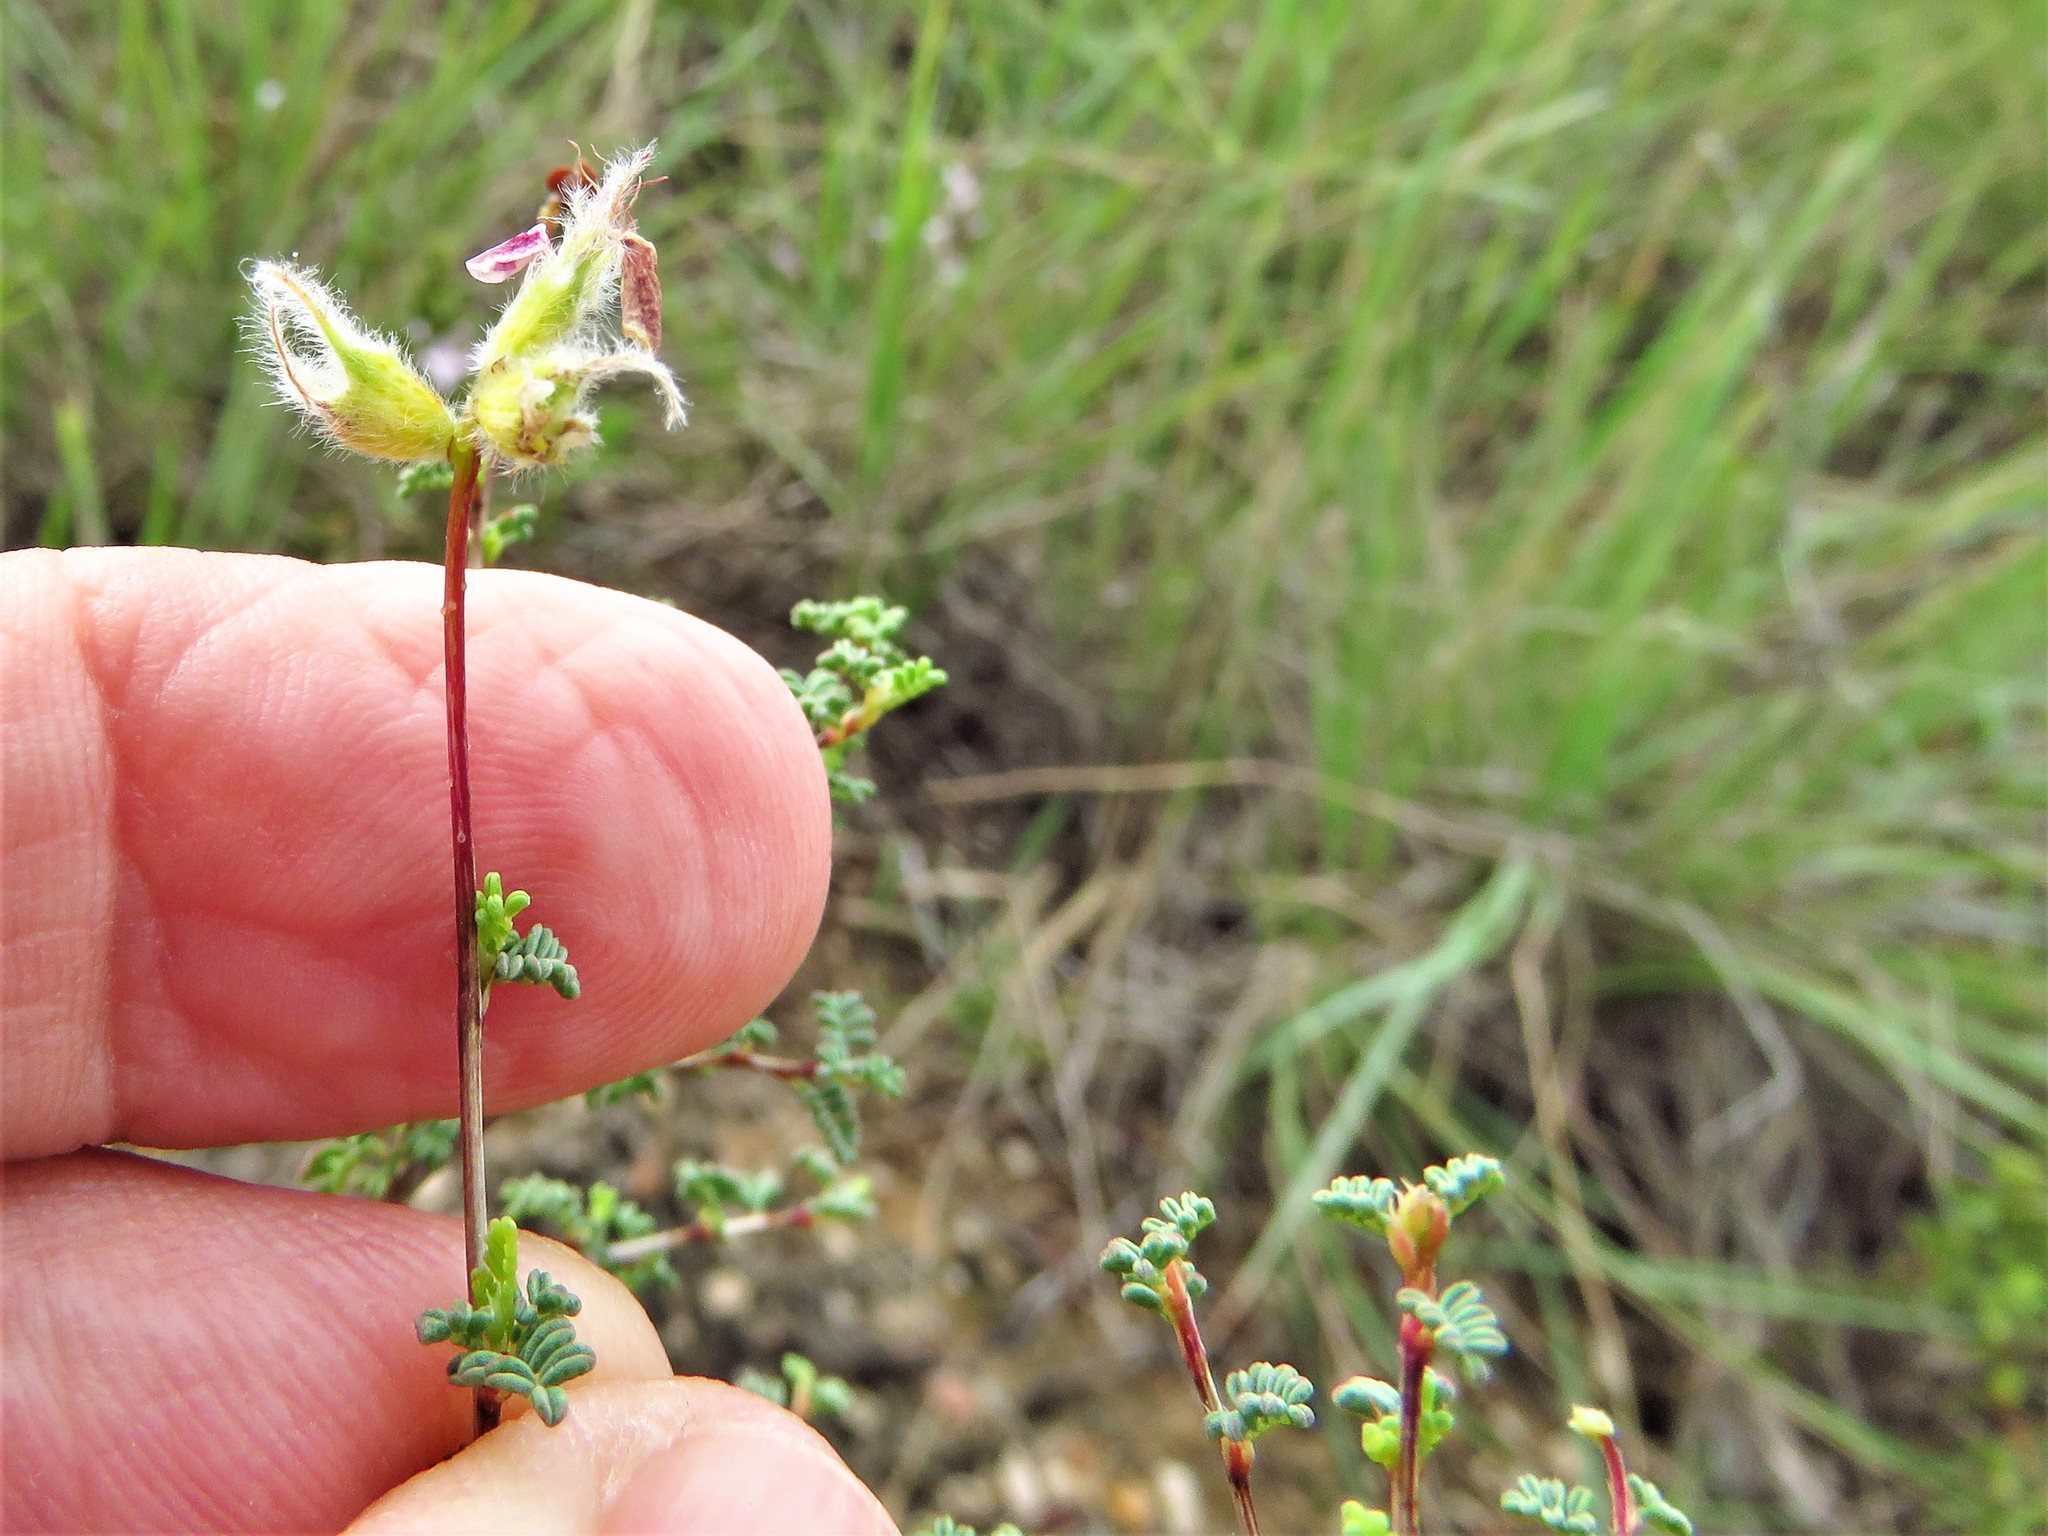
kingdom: Plantae
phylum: Tracheophyta
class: Magnoliopsida
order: Fabales
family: Fabaceae
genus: Dalea
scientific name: Dalea formosa
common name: Feather-plume dalea
